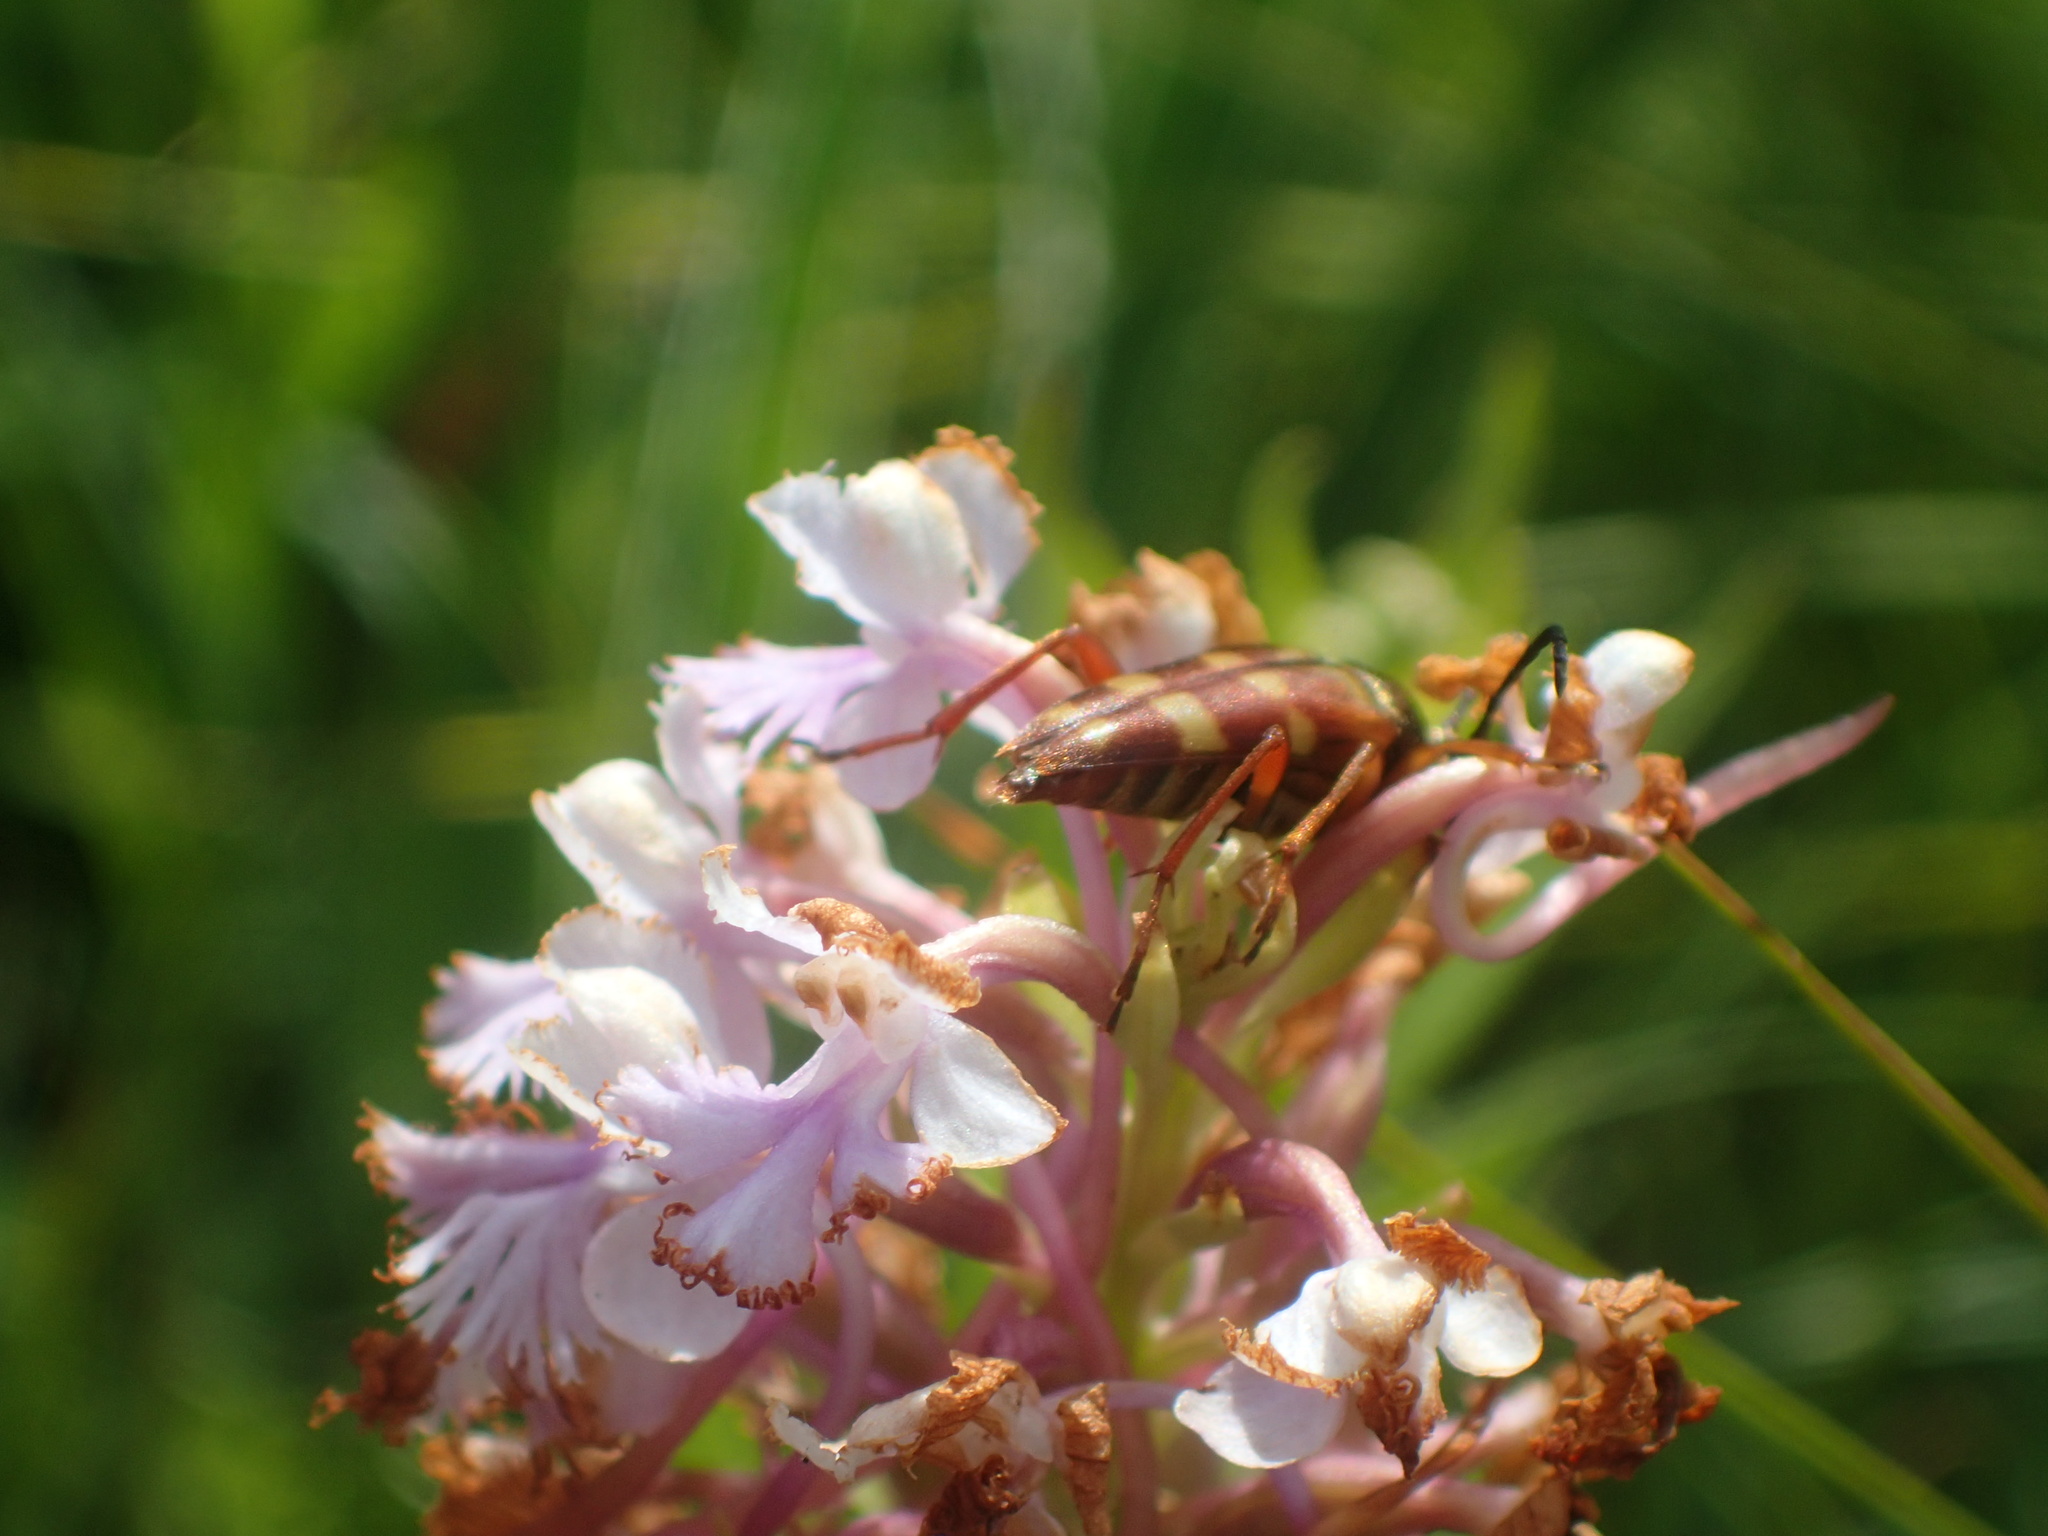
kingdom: Plantae
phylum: Tracheophyta
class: Liliopsida
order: Asparagales
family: Orchidaceae
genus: Platanthera
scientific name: Platanthera psycodes
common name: Lesser purple fringed orchid
